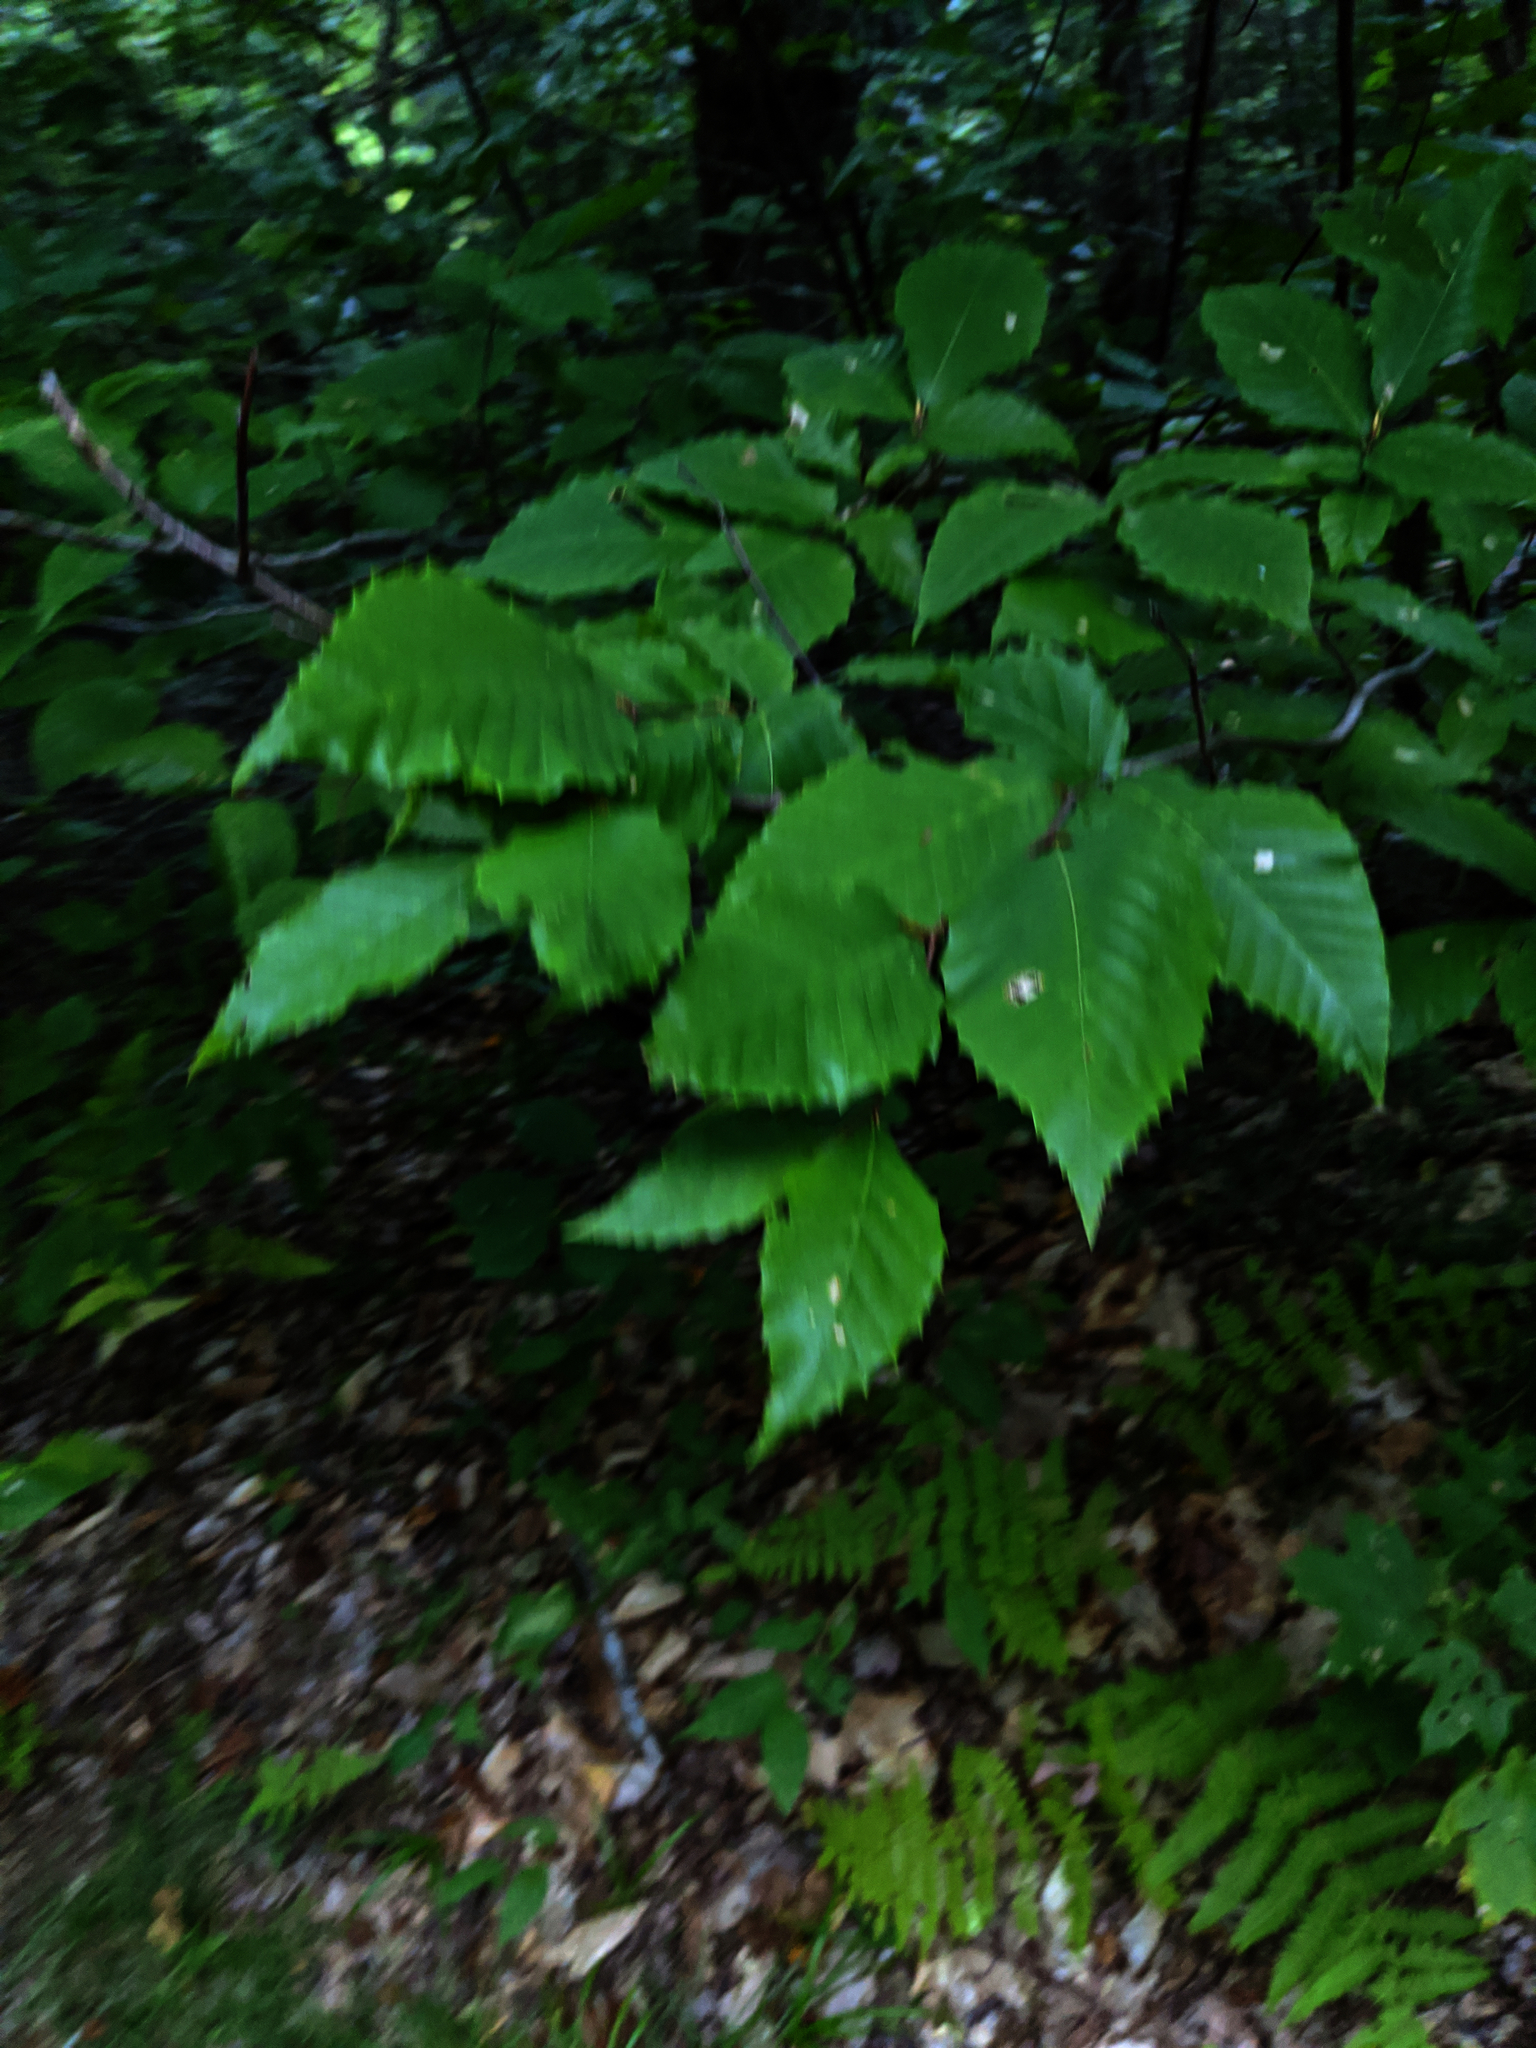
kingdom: Plantae
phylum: Tracheophyta
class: Magnoliopsida
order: Fagales
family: Fagaceae
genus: Fagus
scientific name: Fagus grandifolia
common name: American beech
